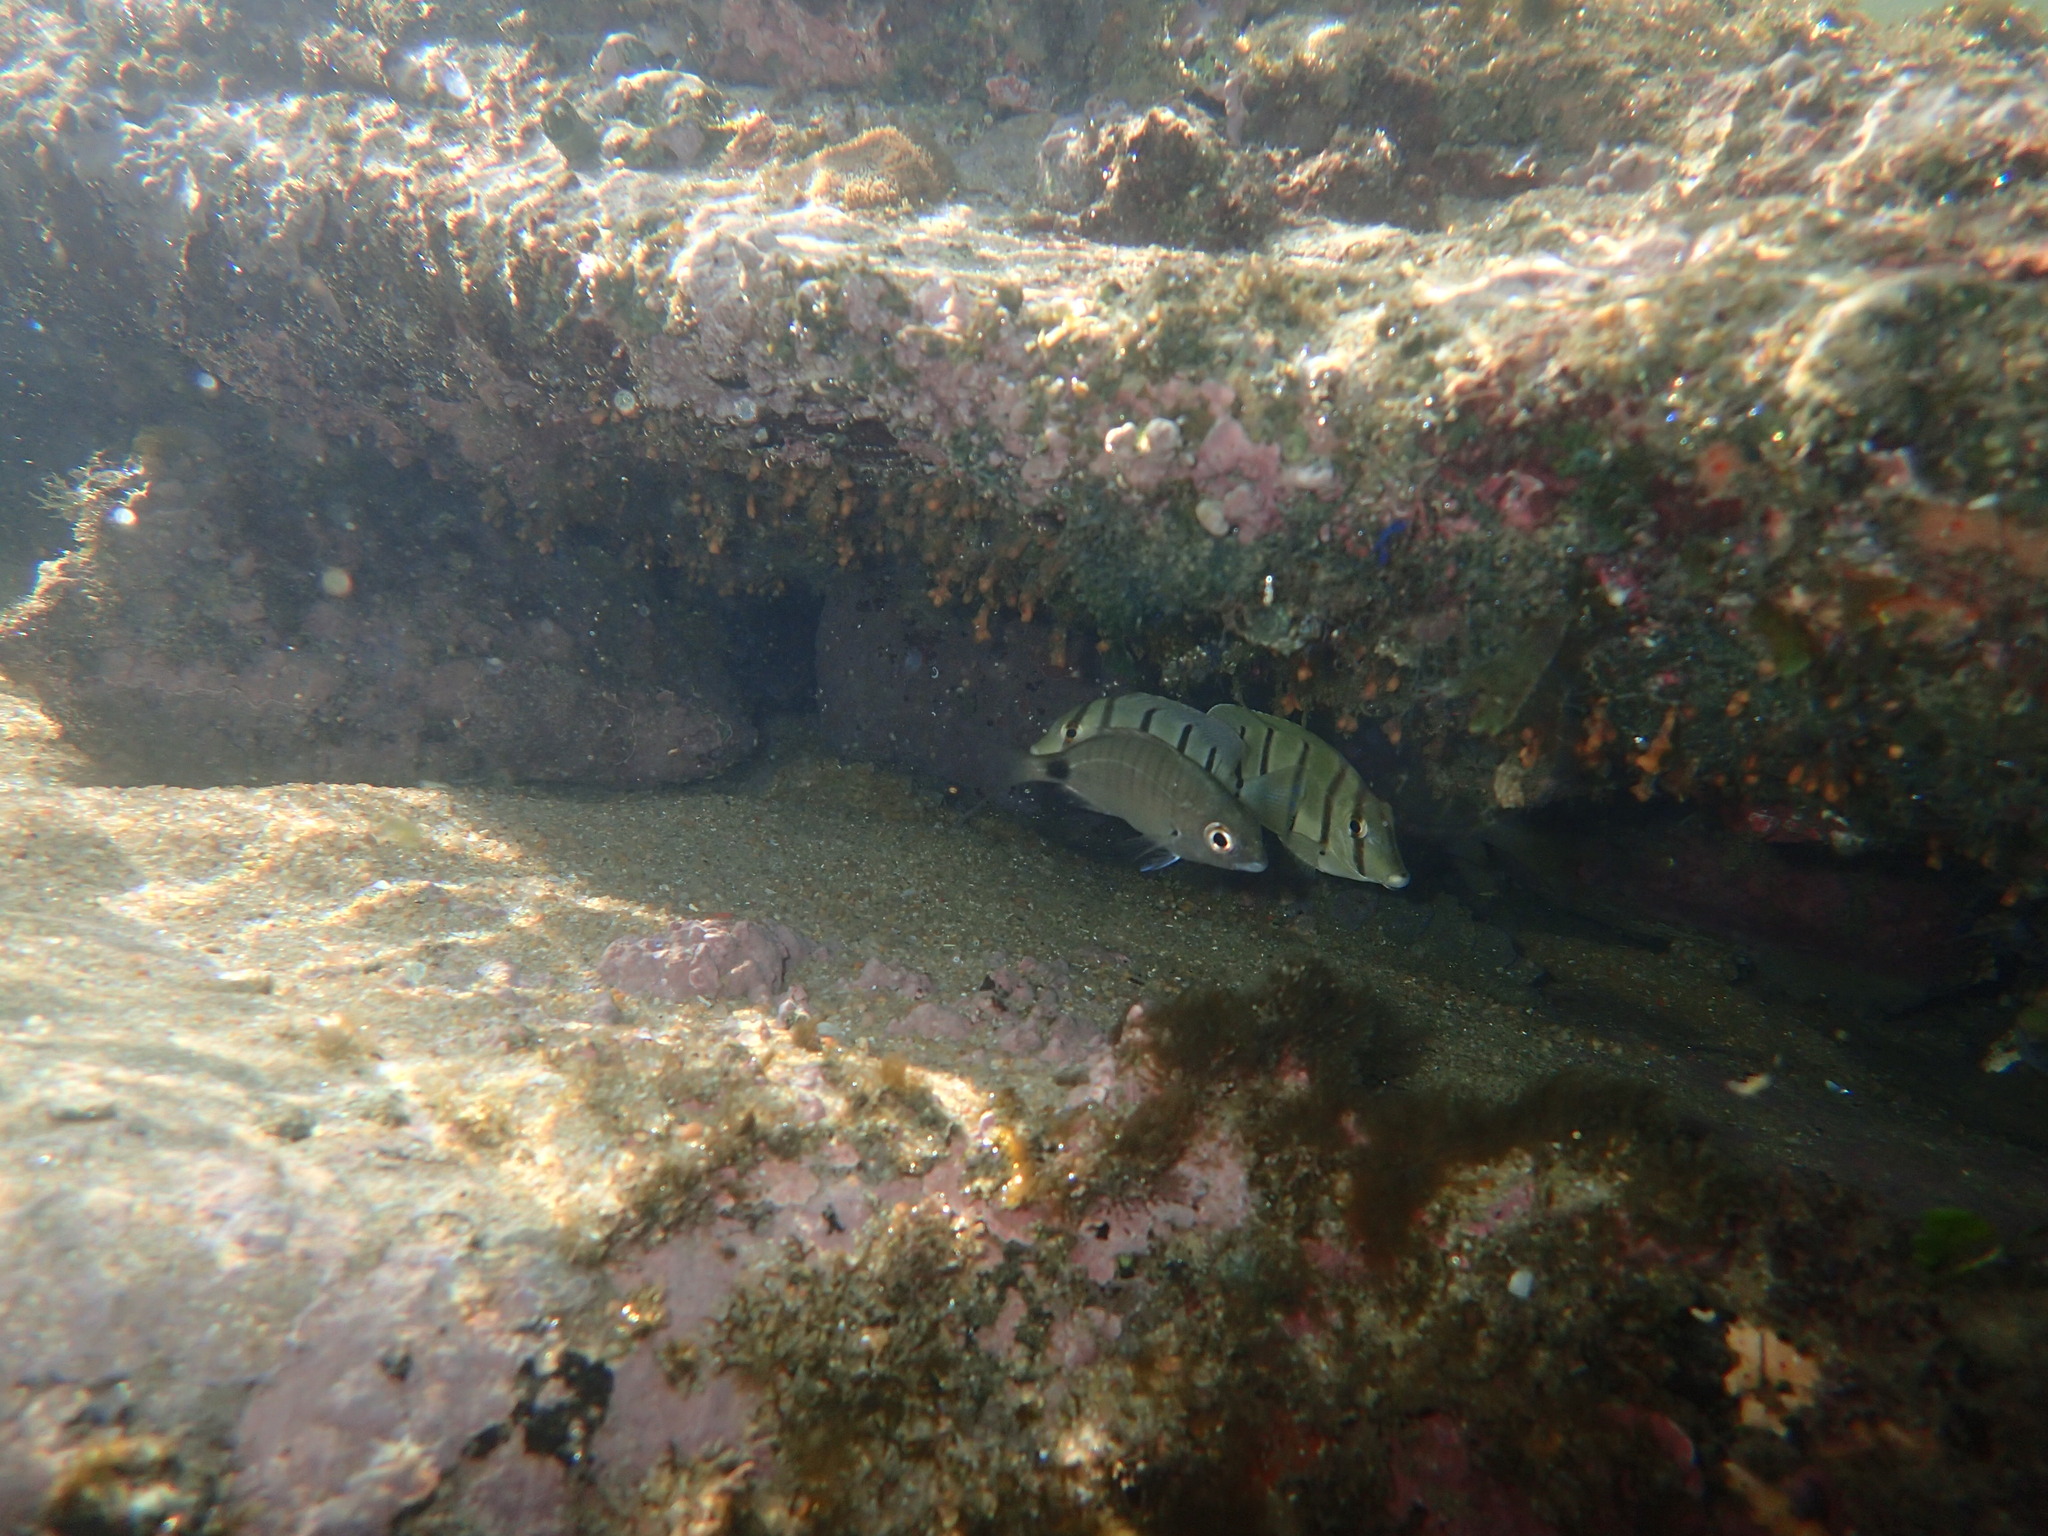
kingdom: Animalia
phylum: Chordata
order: Perciformes
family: Acanthuridae
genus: Acanthurus
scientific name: Acanthurus triostegus
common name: Convict surgeonfish
